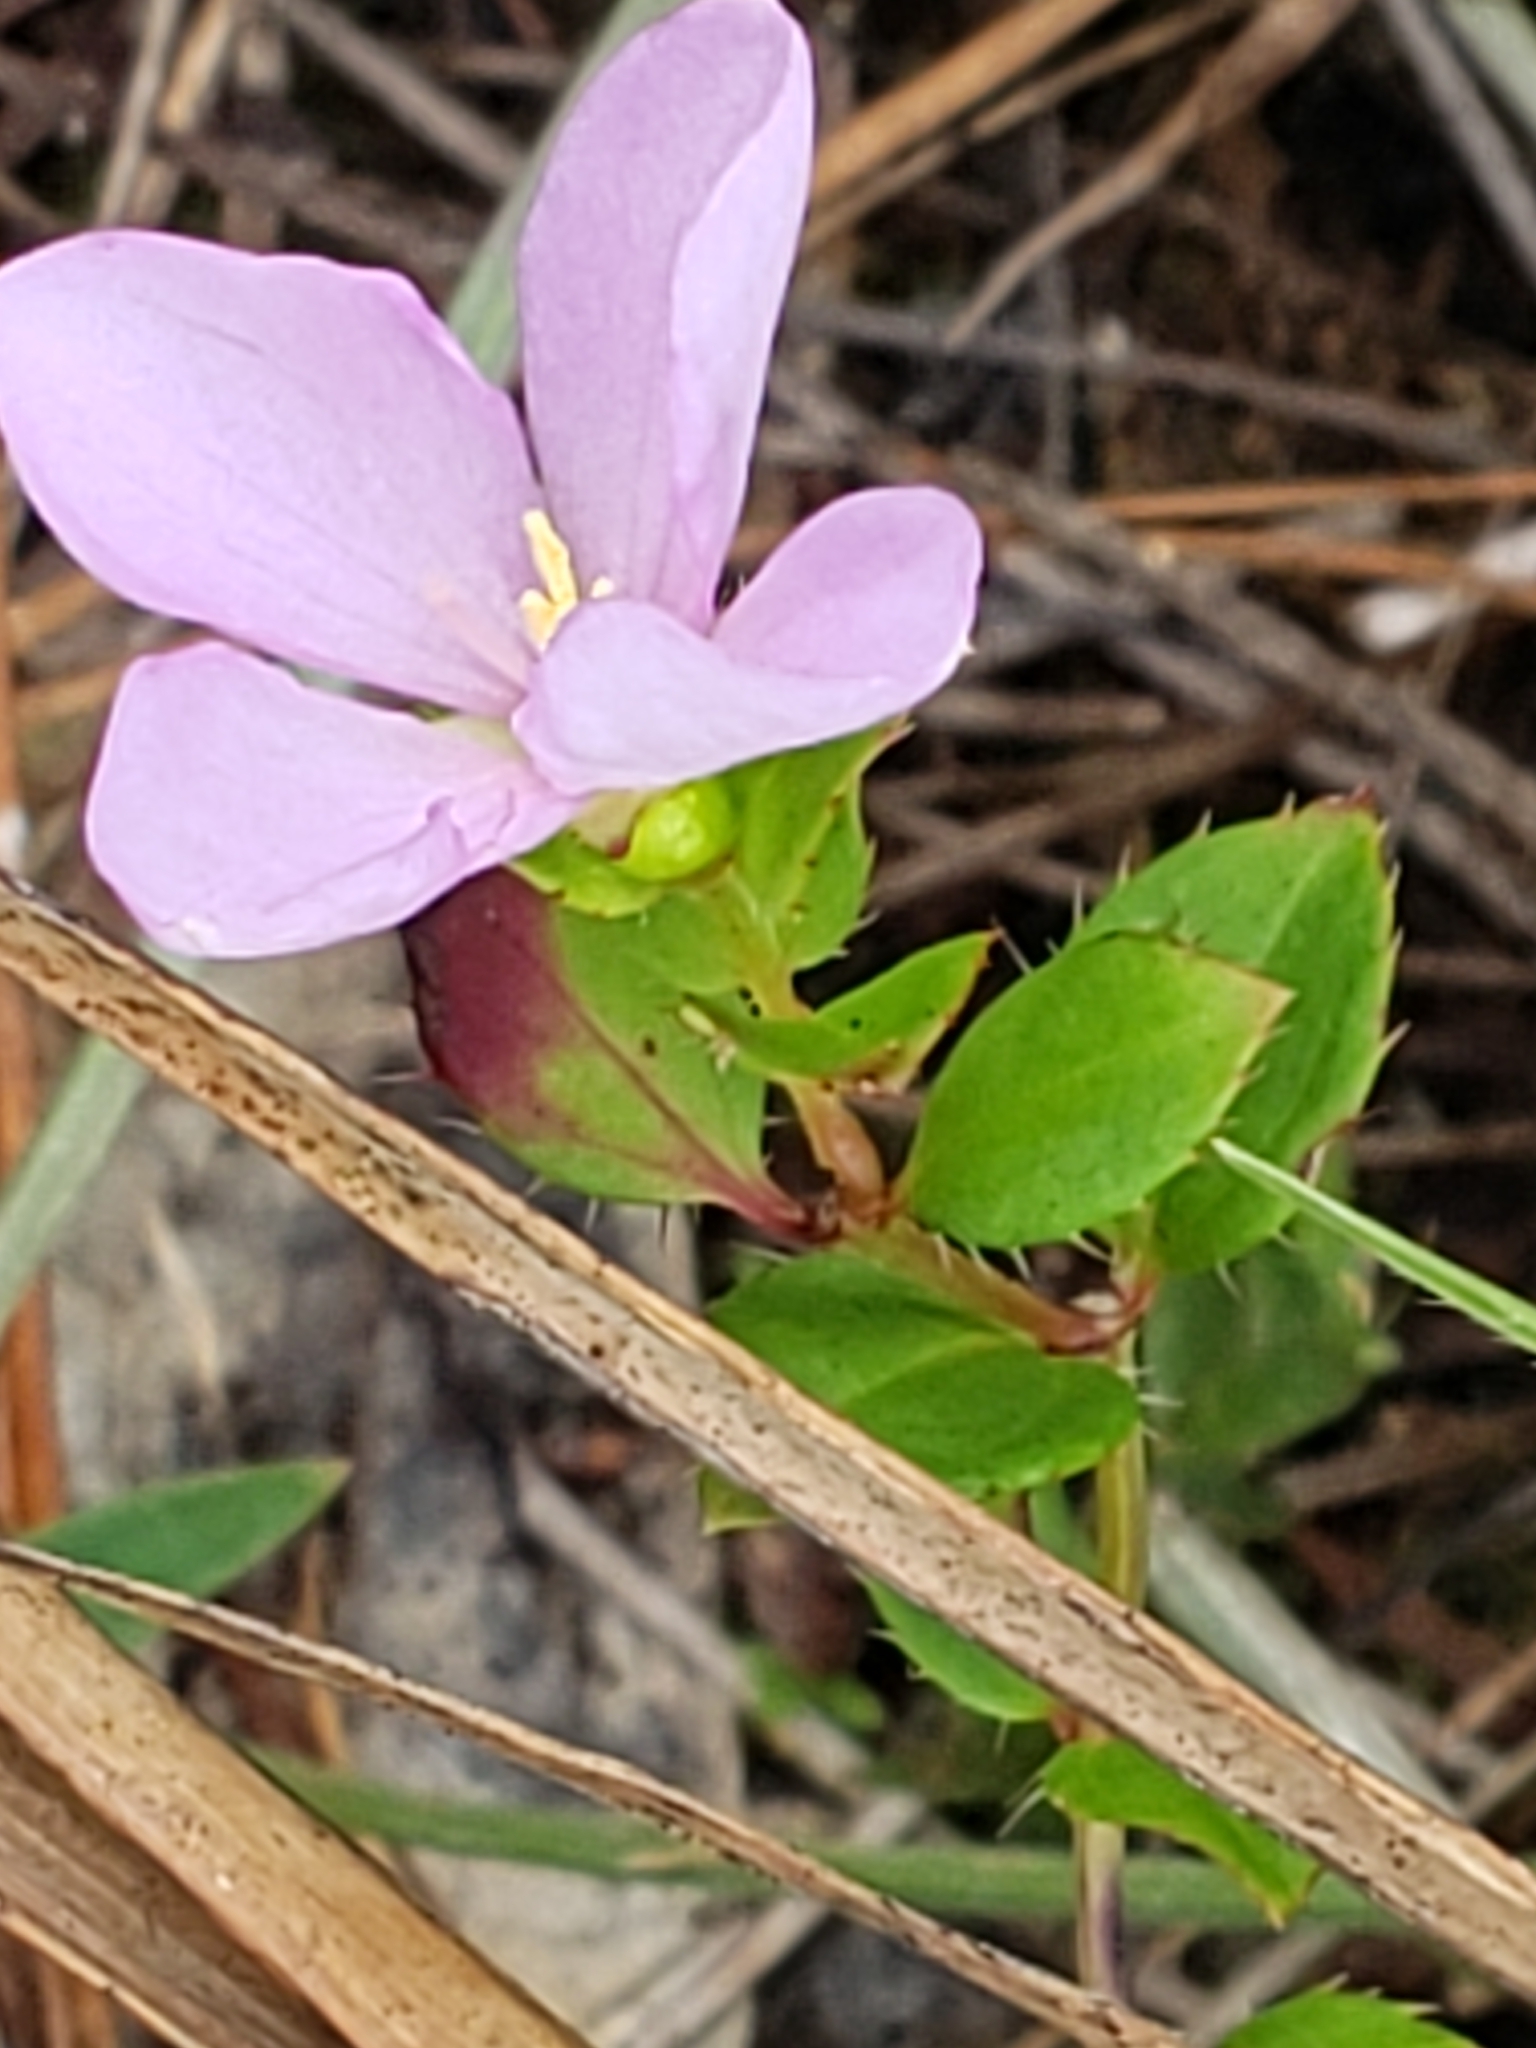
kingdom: Plantae
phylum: Tracheophyta
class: Magnoliopsida
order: Myrtales
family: Melastomataceae
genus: Rhexia
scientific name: Rhexia petiolata
